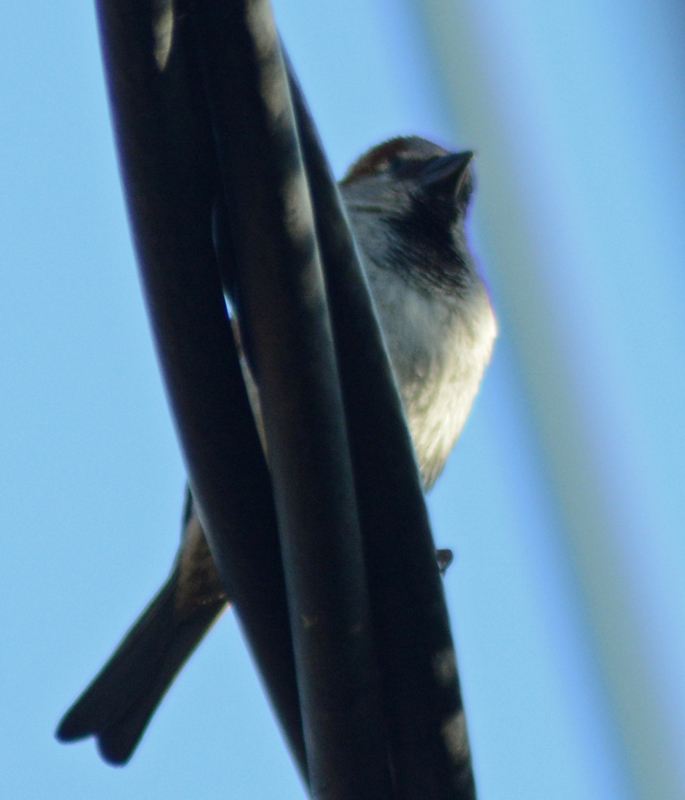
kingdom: Animalia
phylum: Chordata
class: Aves
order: Passeriformes
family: Passeridae
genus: Passer
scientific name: Passer domesticus
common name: House sparrow
